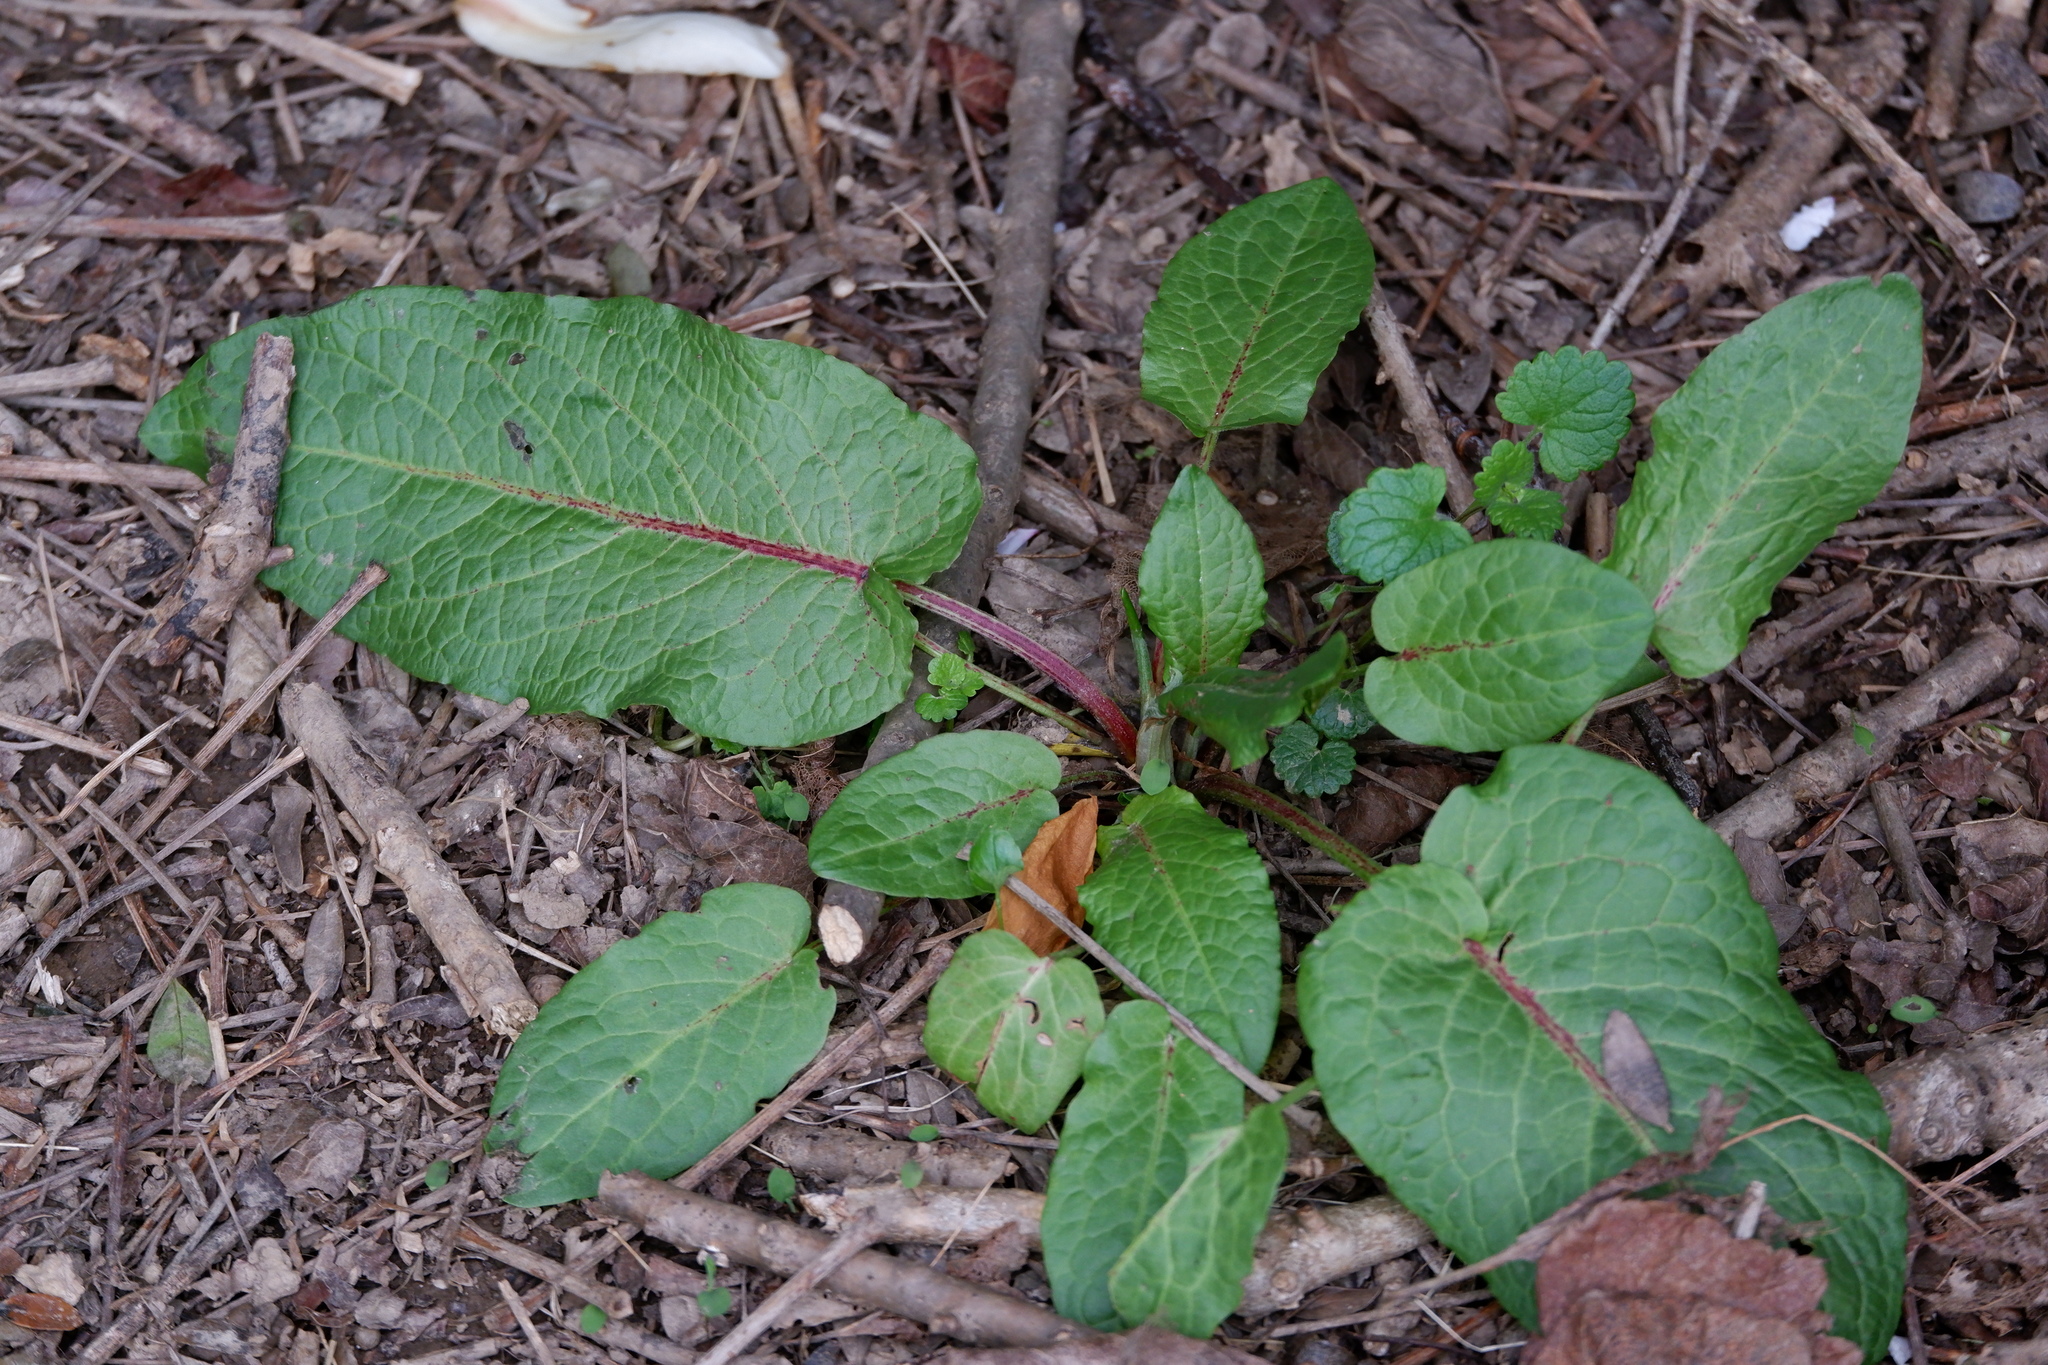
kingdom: Plantae
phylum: Tracheophyta
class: Magnoliopsida
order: Caryophyllales
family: Polygonaceae
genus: Rumex
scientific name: Rumex obtusifolius
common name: Bitter dock
